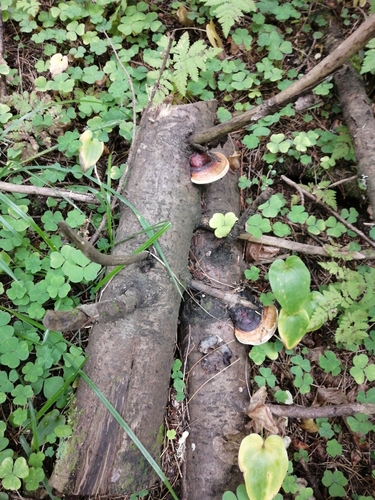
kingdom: Fungi
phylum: Basidiomycota
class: Agaricomycetes
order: Polyporales
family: Fomitopsidaceae
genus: Fomitopsis
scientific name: Fomitopsis pinicola
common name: Red-belted bracket
